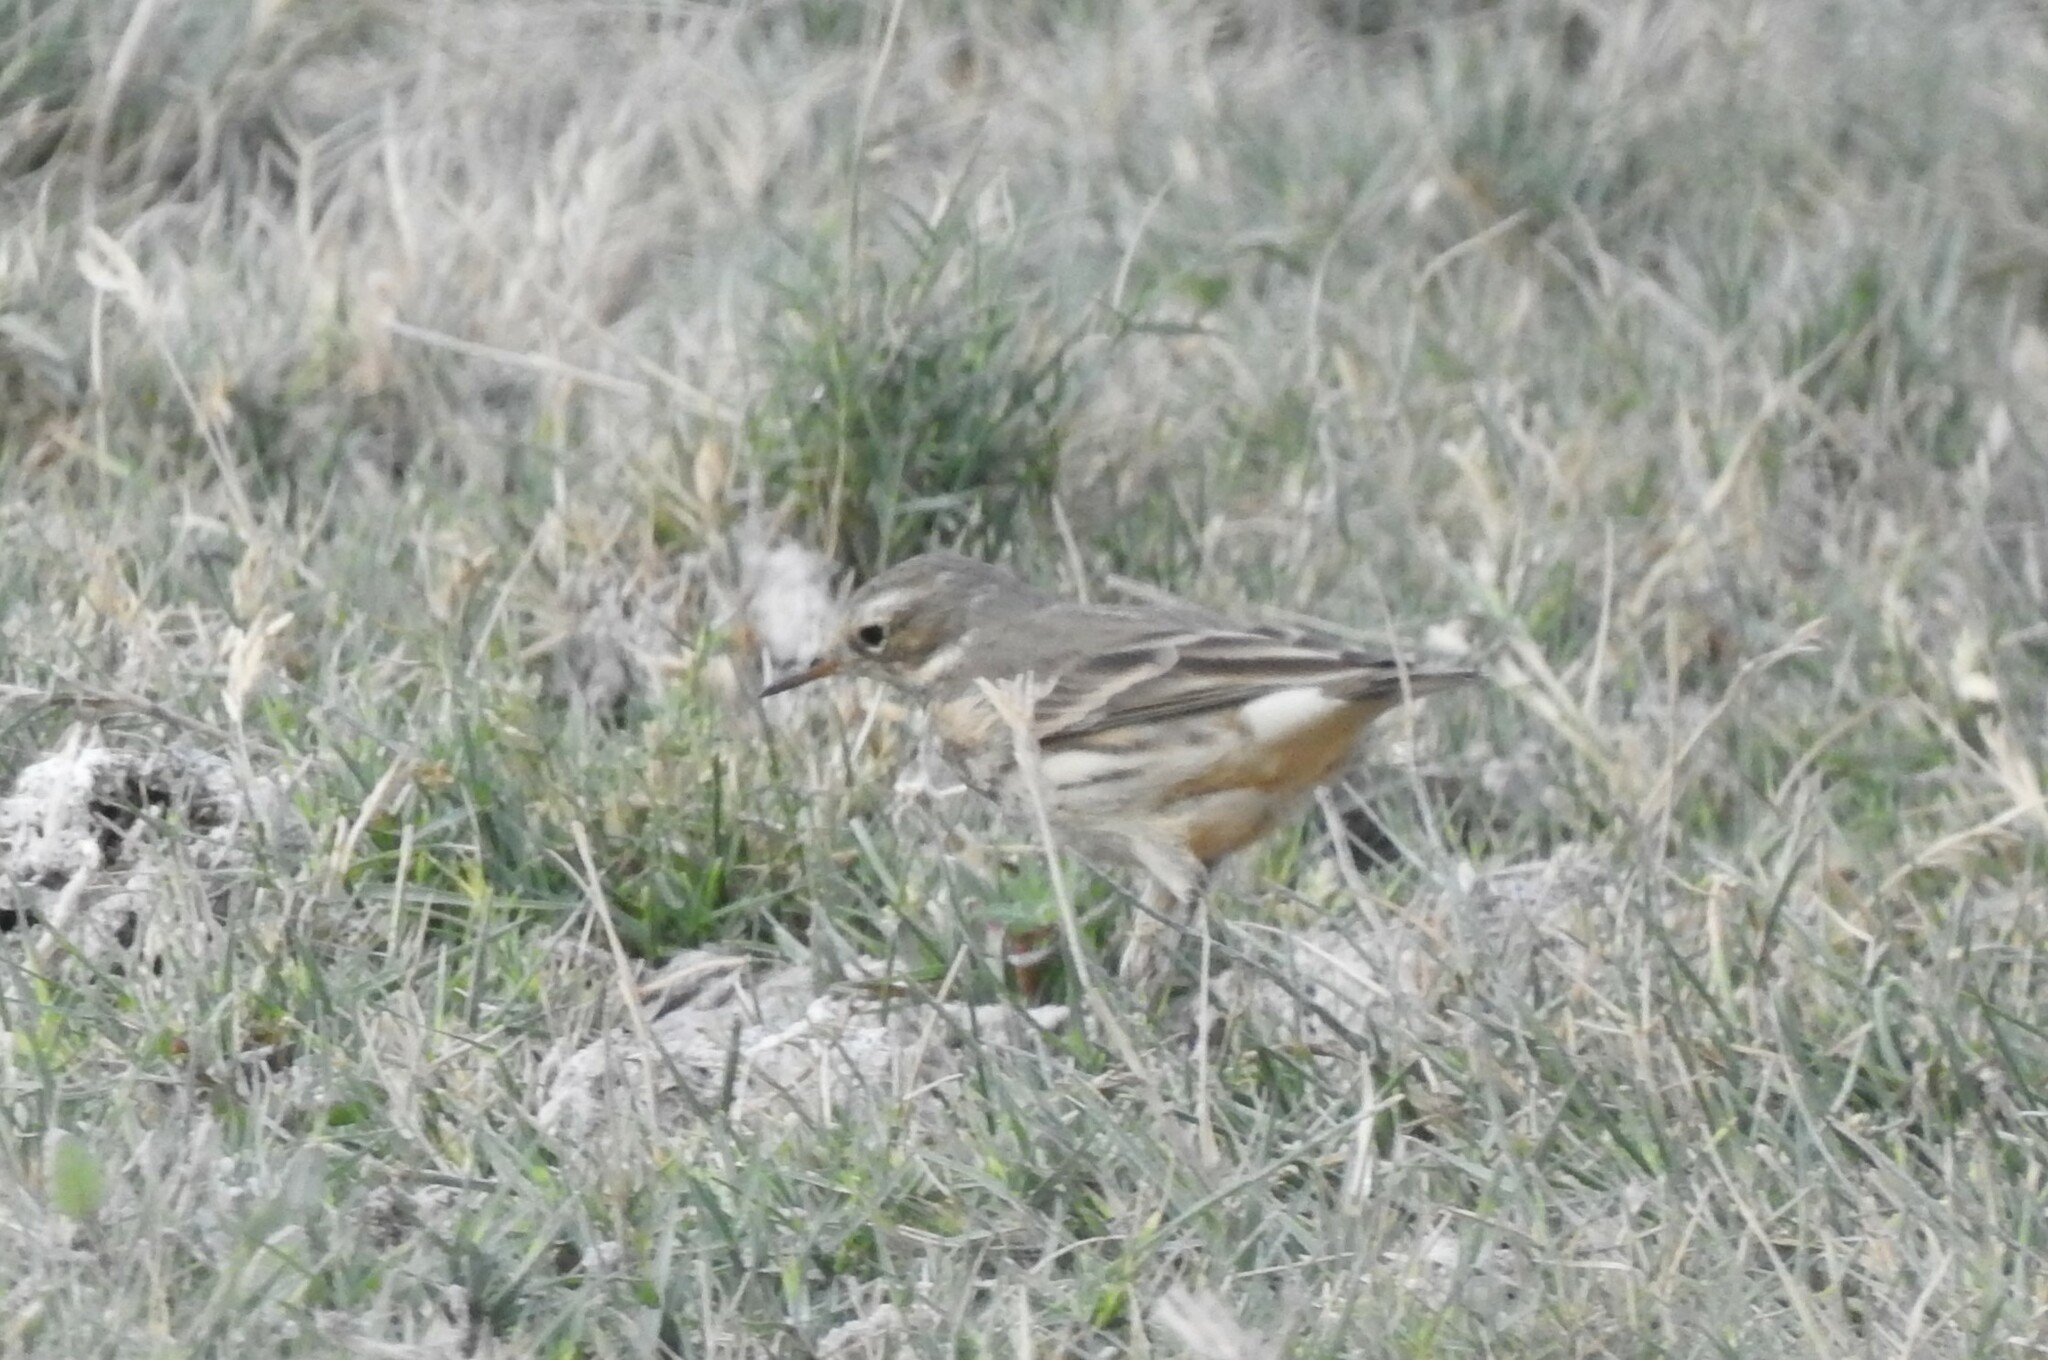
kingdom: Animalia
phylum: Chordata
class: Aves
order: Passeriformes
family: Motacillidae
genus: Anthus
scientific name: Anthus rubescens
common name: Buff-bellied pipit
